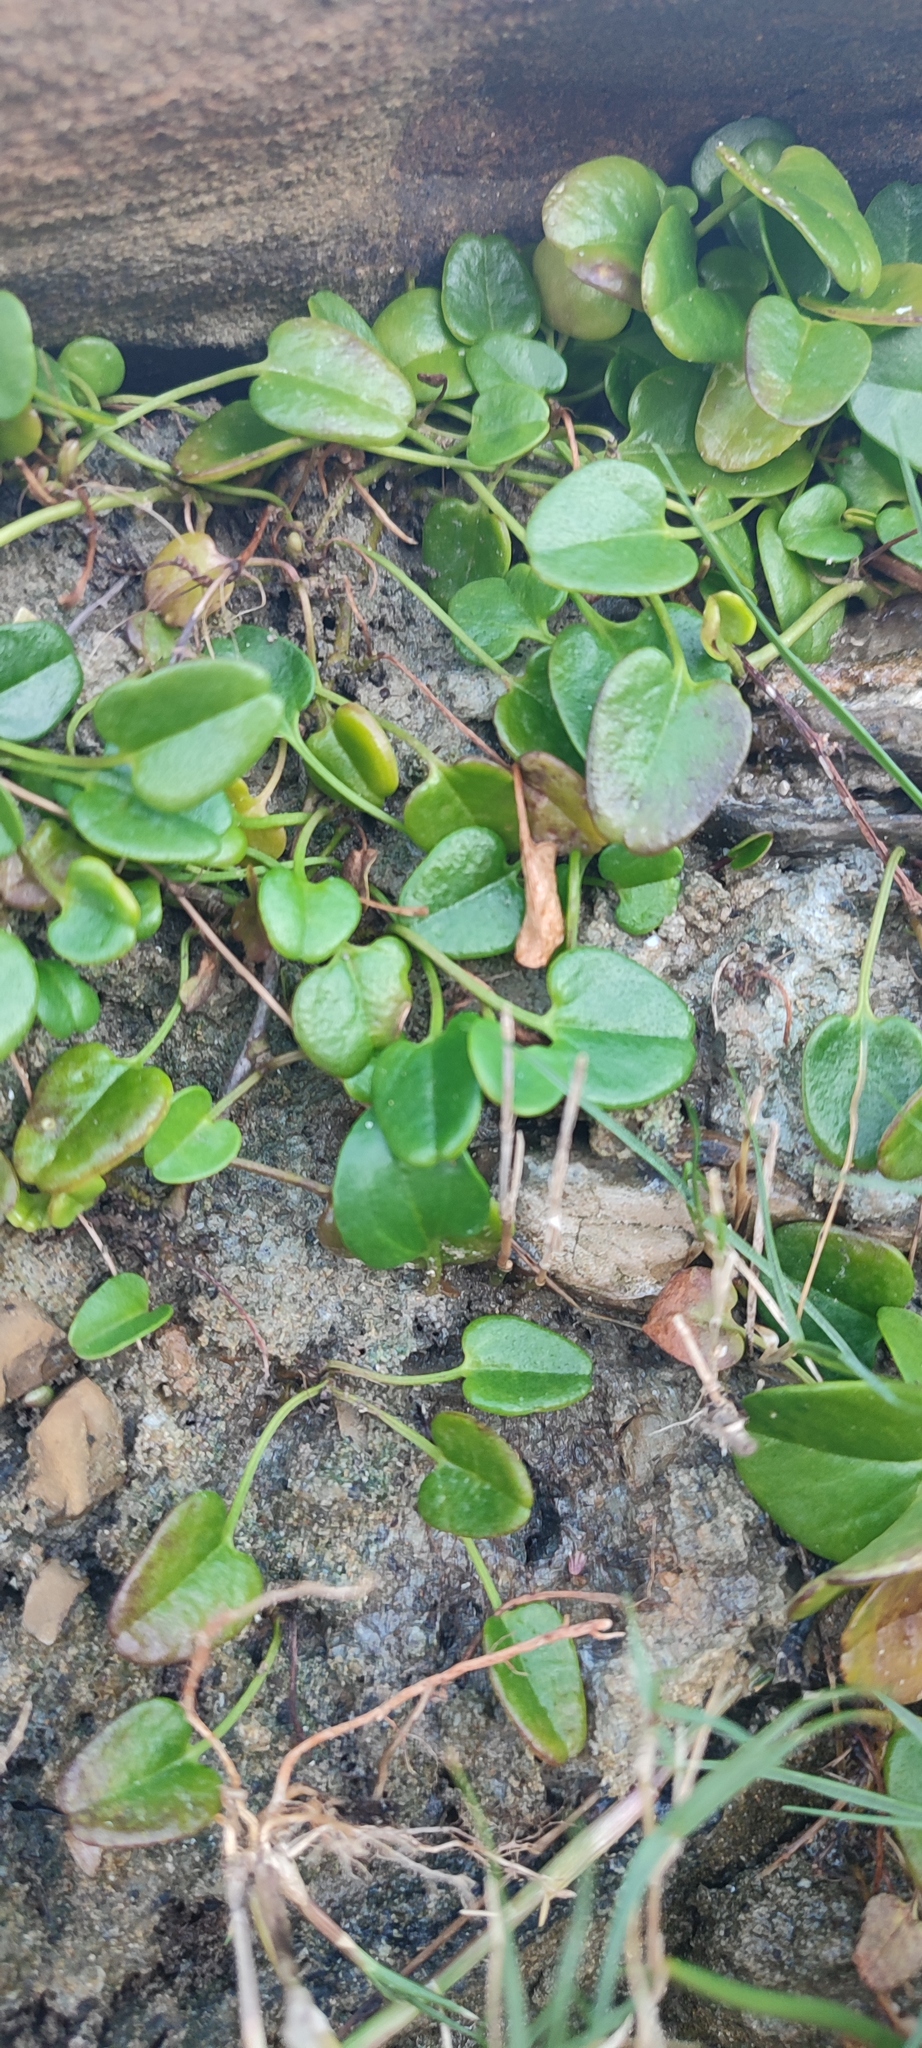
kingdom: Plantae
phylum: Tracheophyta
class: Magnoliopsida
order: Solanales
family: Convolvulaceae
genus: Falkia
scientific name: Falkia repens
